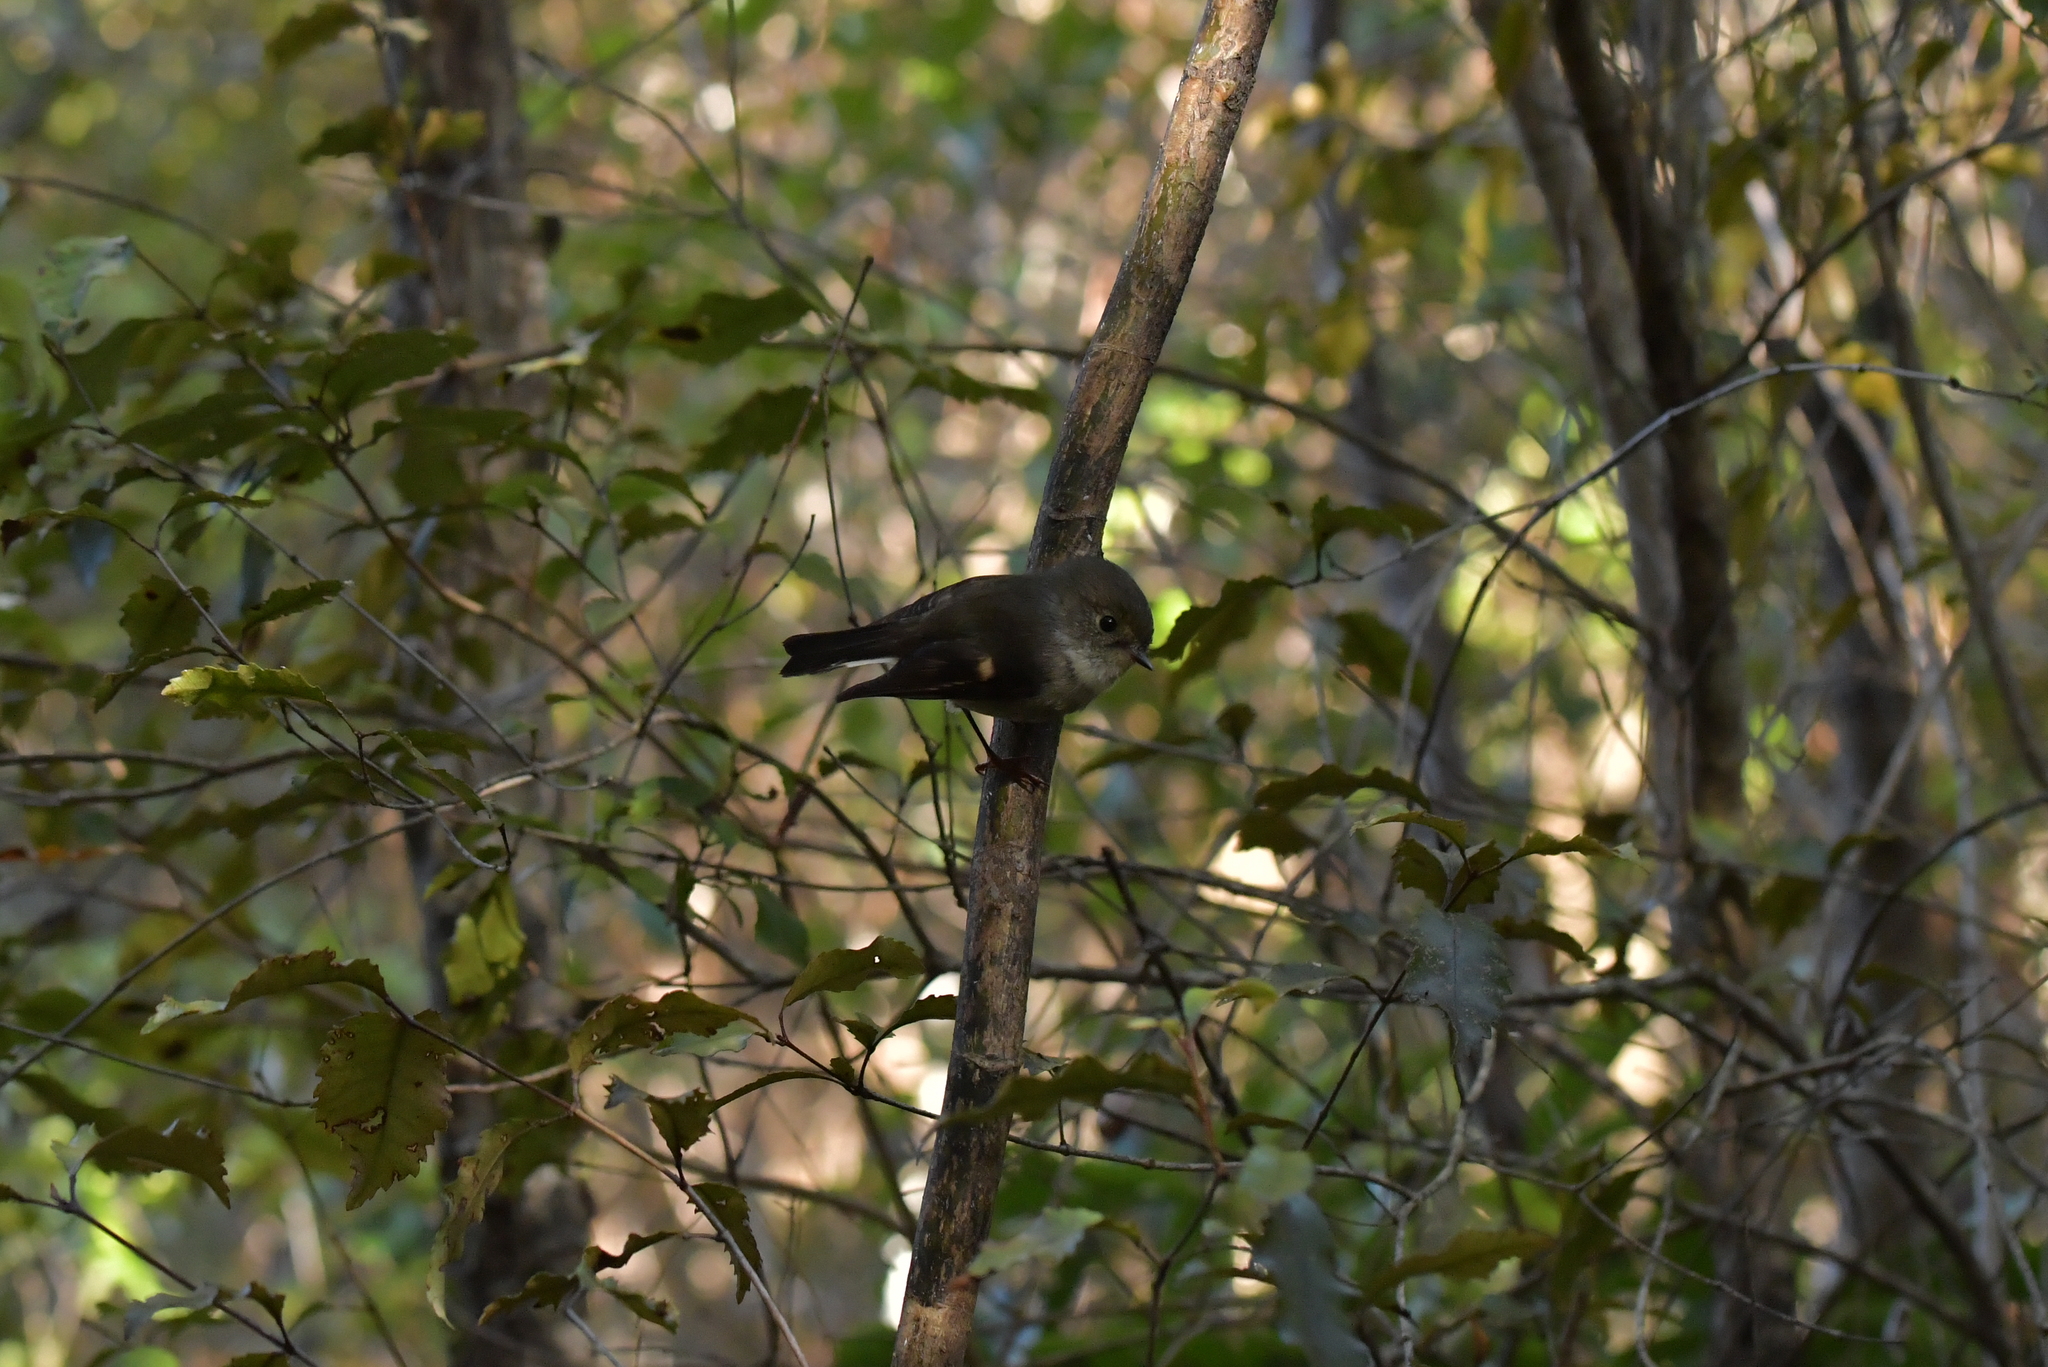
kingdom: Animalia
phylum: Chordata
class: Aves
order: Passeriformes
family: Petroicidae
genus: Petroica
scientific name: Petroica macrocephala
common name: Tomtit
